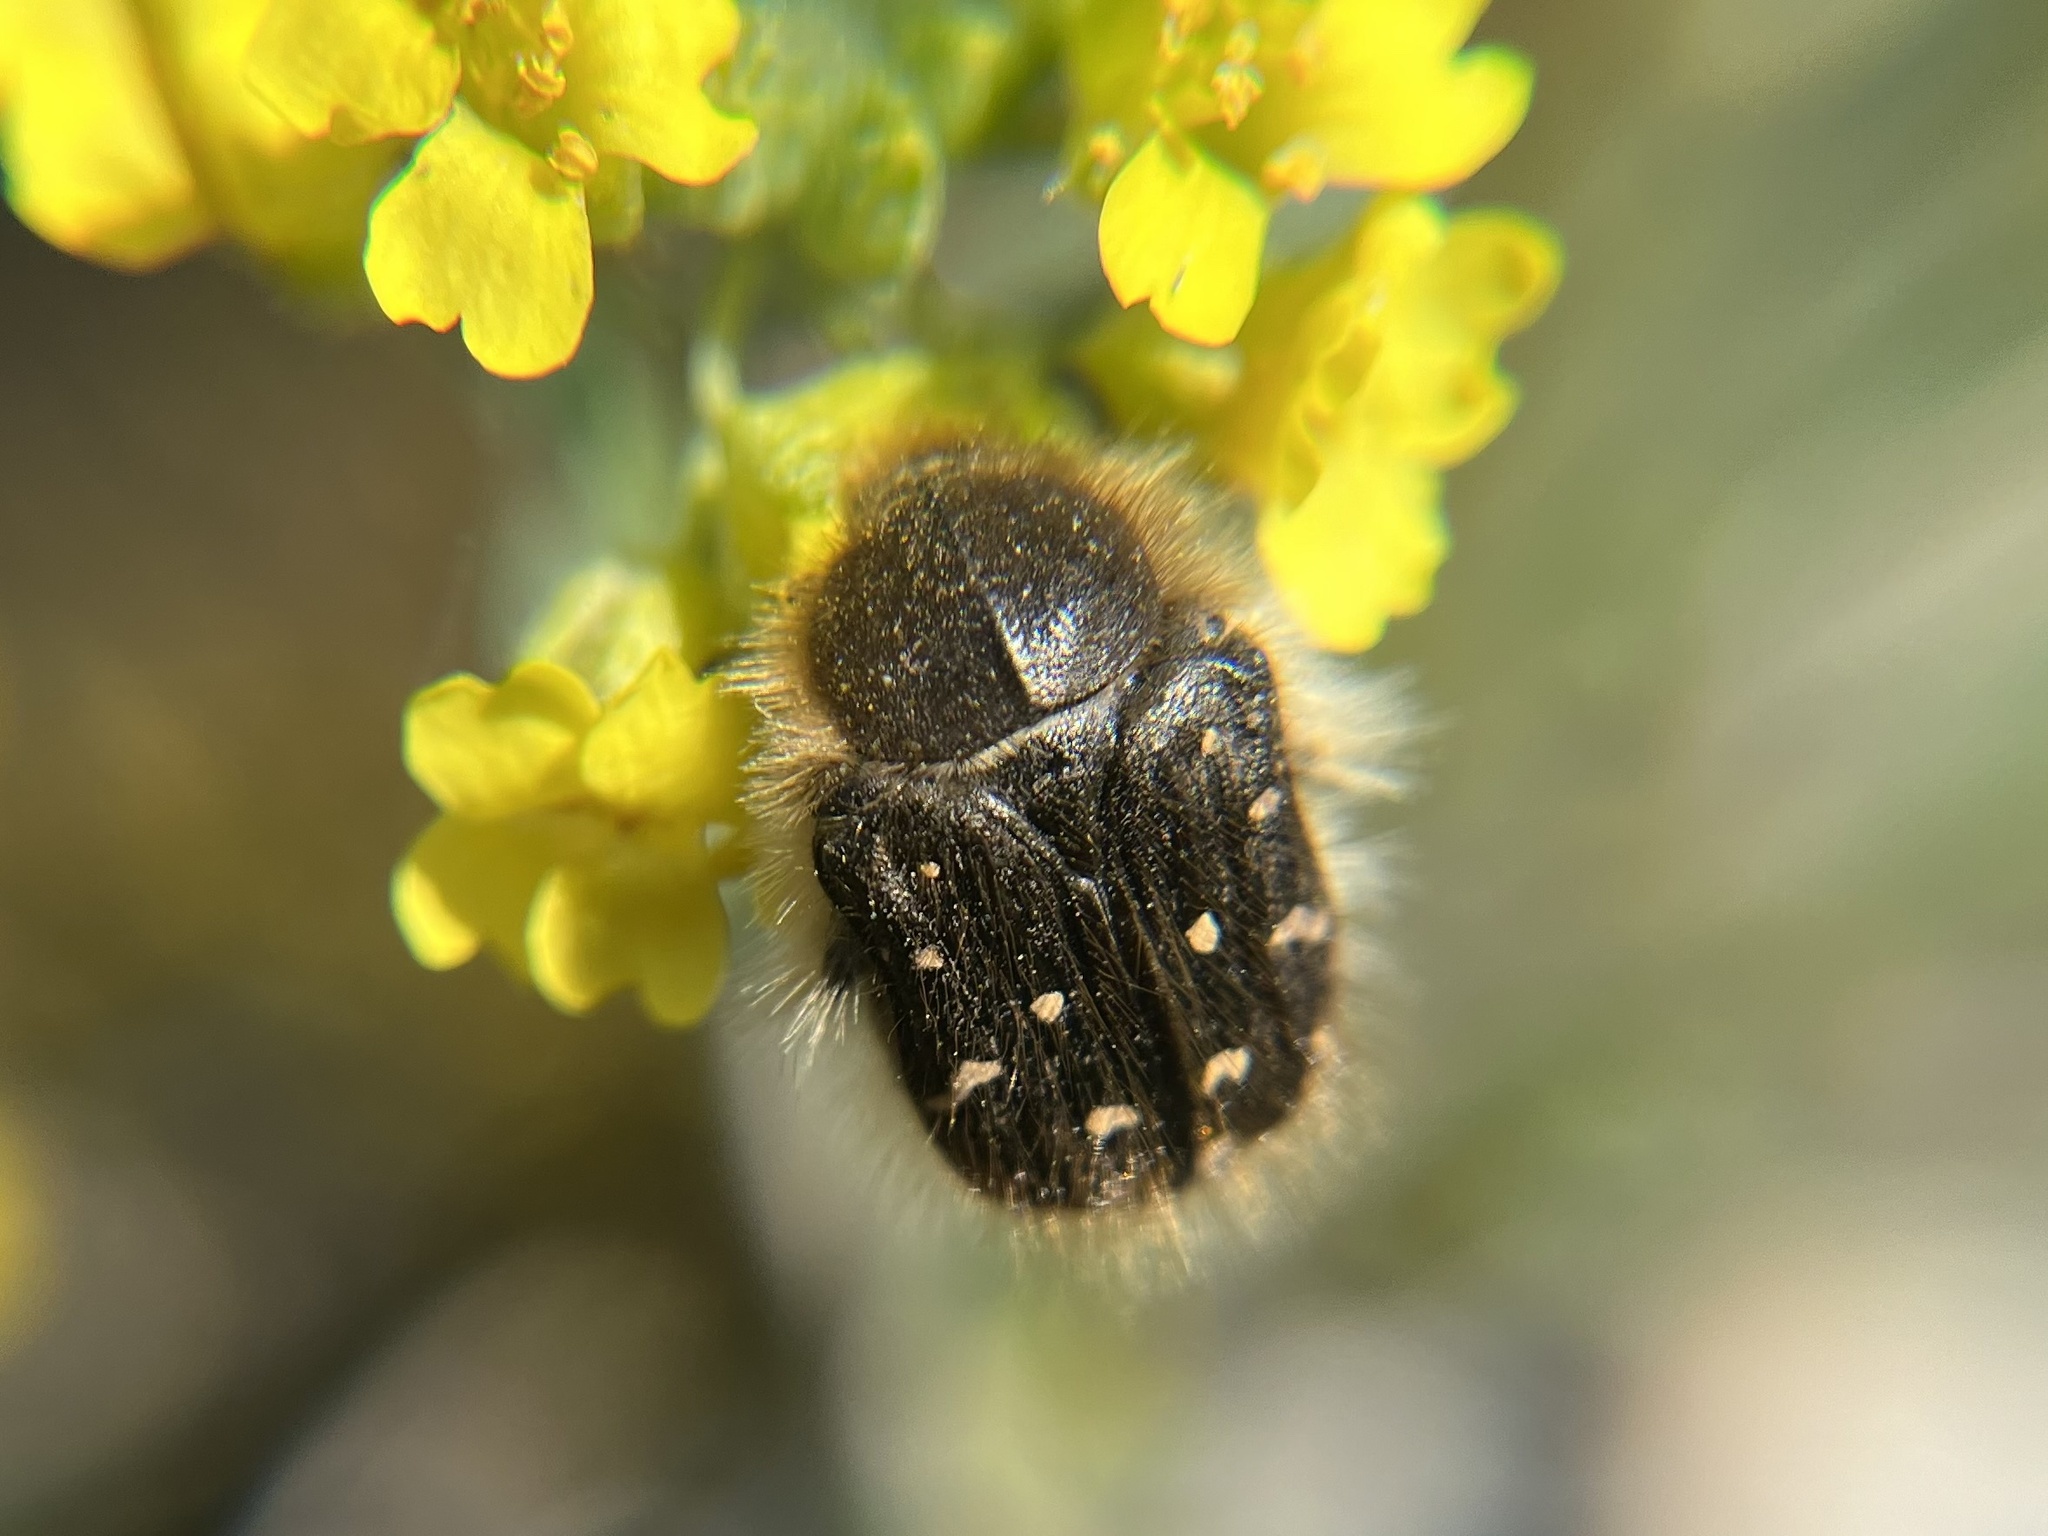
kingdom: Animalia
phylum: Arthropoda
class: Insecta
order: Coleoptera
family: Scarabaeidae
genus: Tropinota
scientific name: Tropinota hirta
